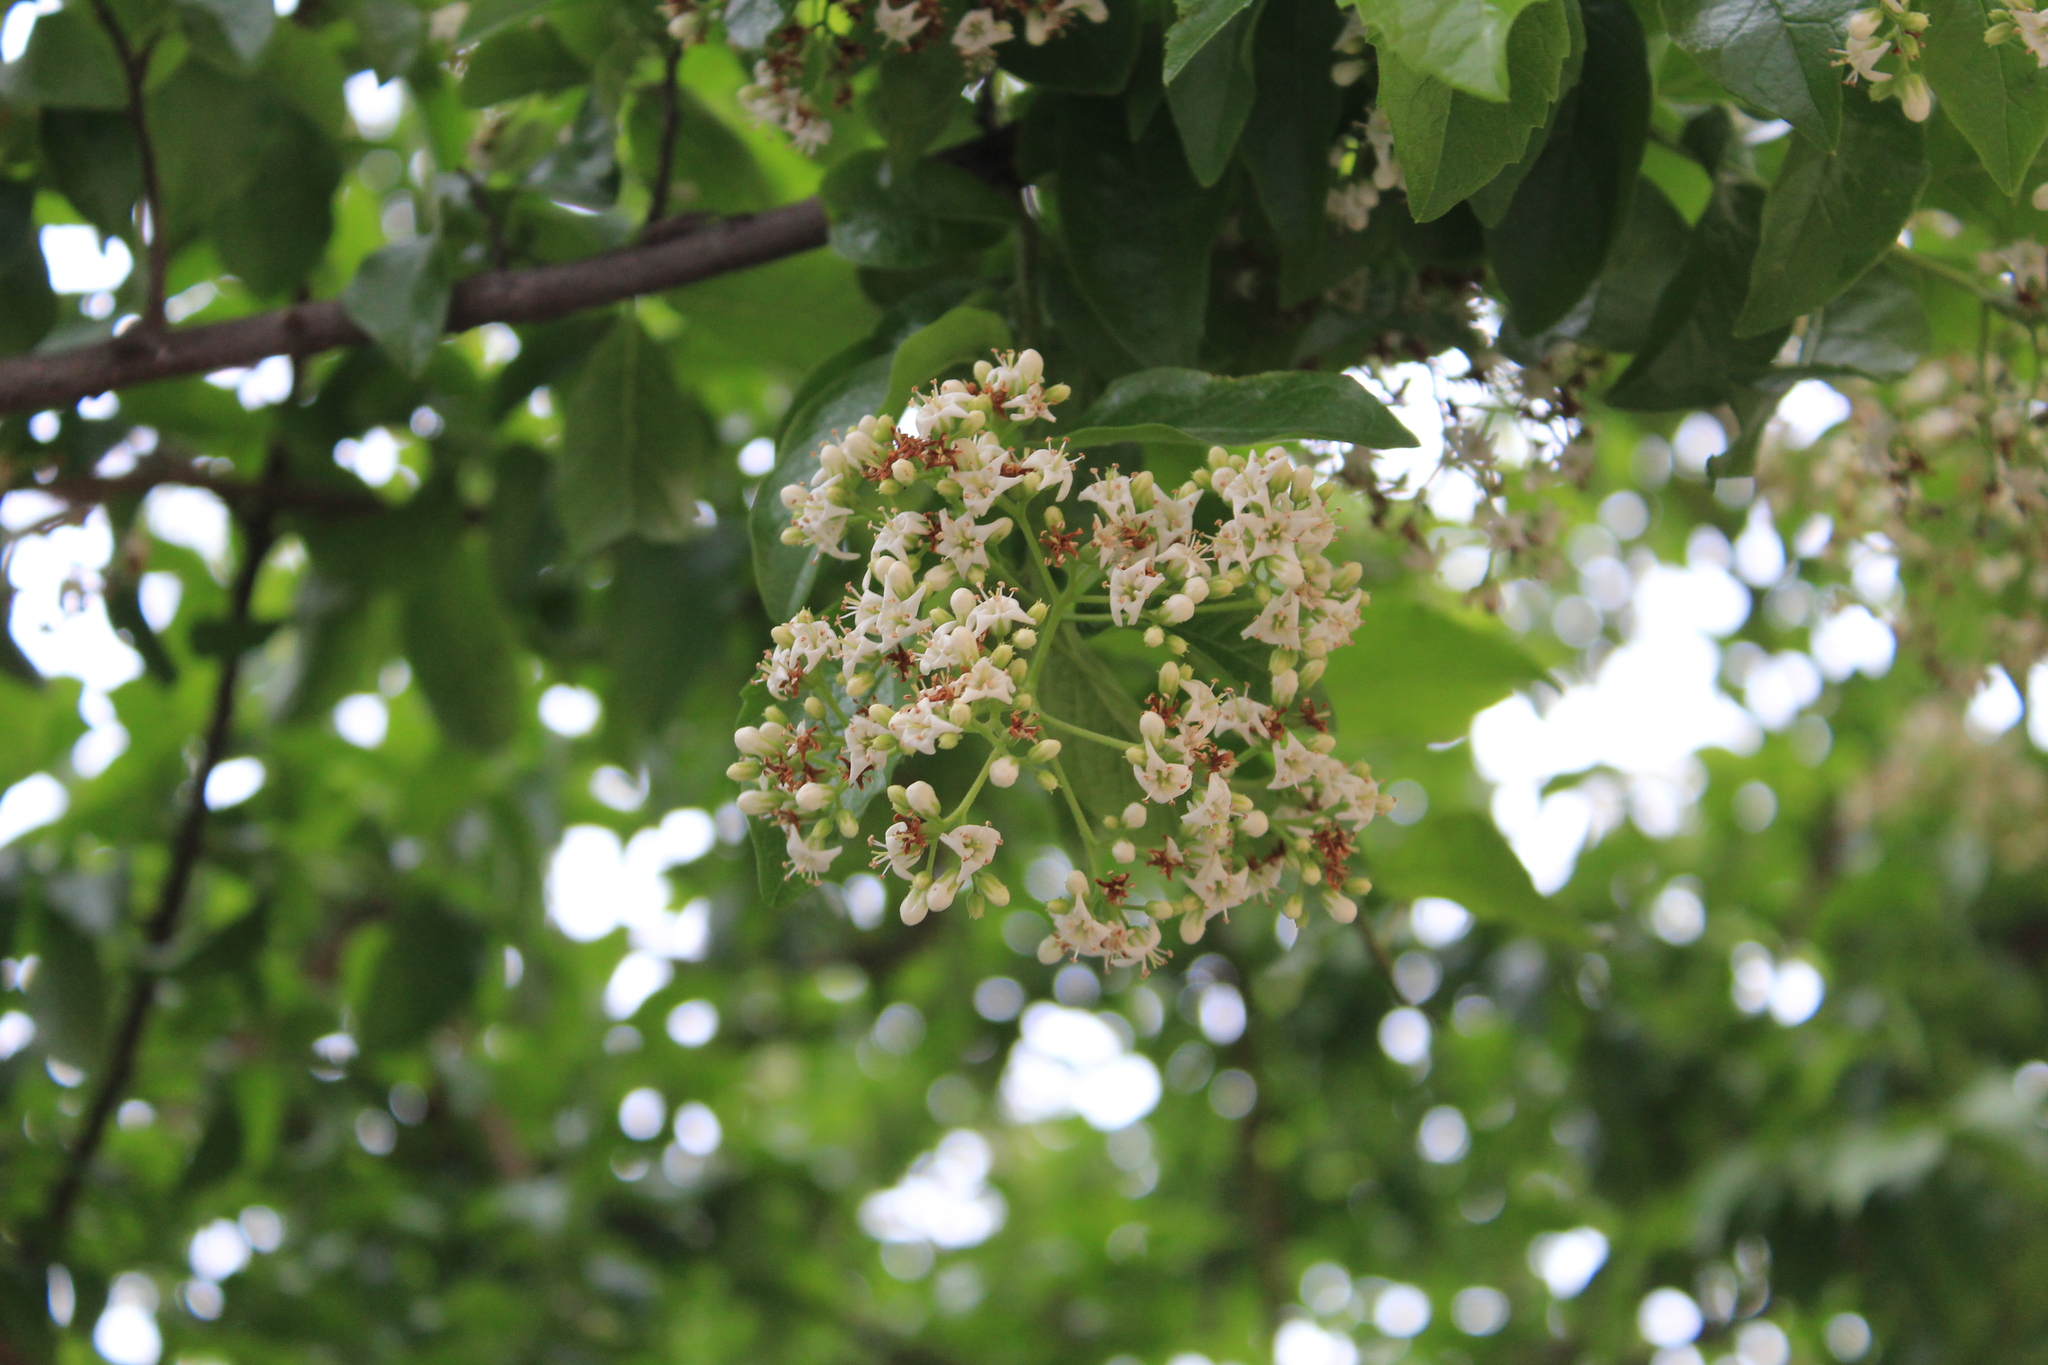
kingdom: Plantae
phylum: Tracheophyta
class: Magnoliopsida
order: Boraginales
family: Ehretiaceae
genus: Ehretia
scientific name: Ehretia anacua
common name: Sugarberry
